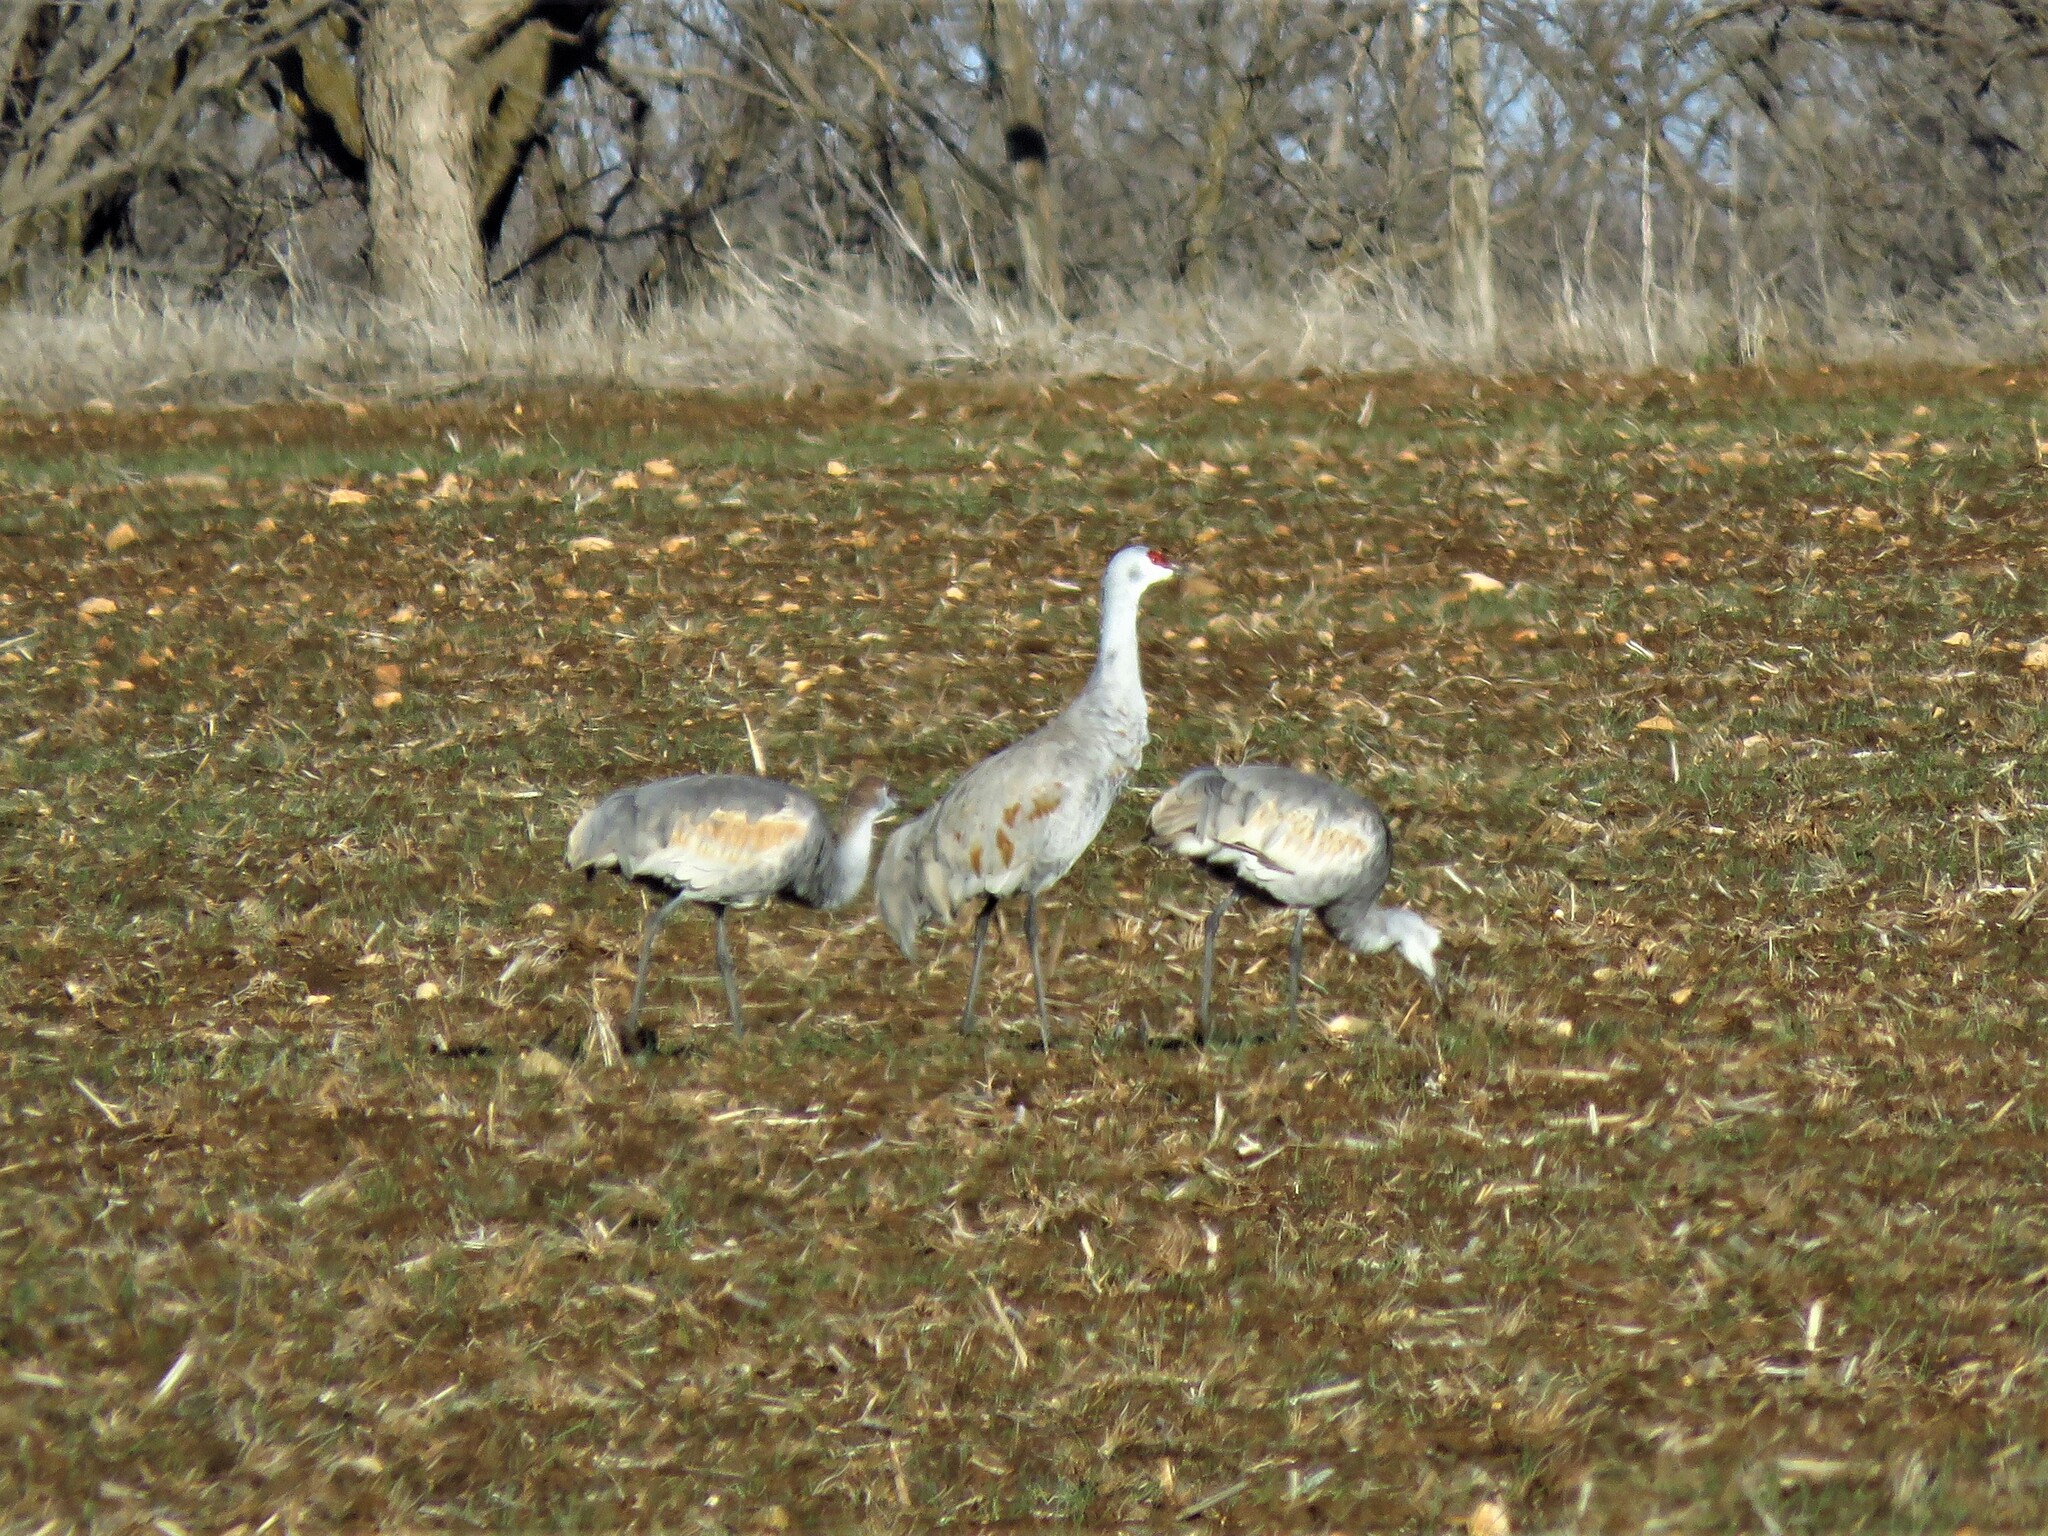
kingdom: Animalia
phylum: Chordata
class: Aves
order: Gruiformes
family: Gruidae
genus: Grus
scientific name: Grus canadensis
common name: Sandhill crane
